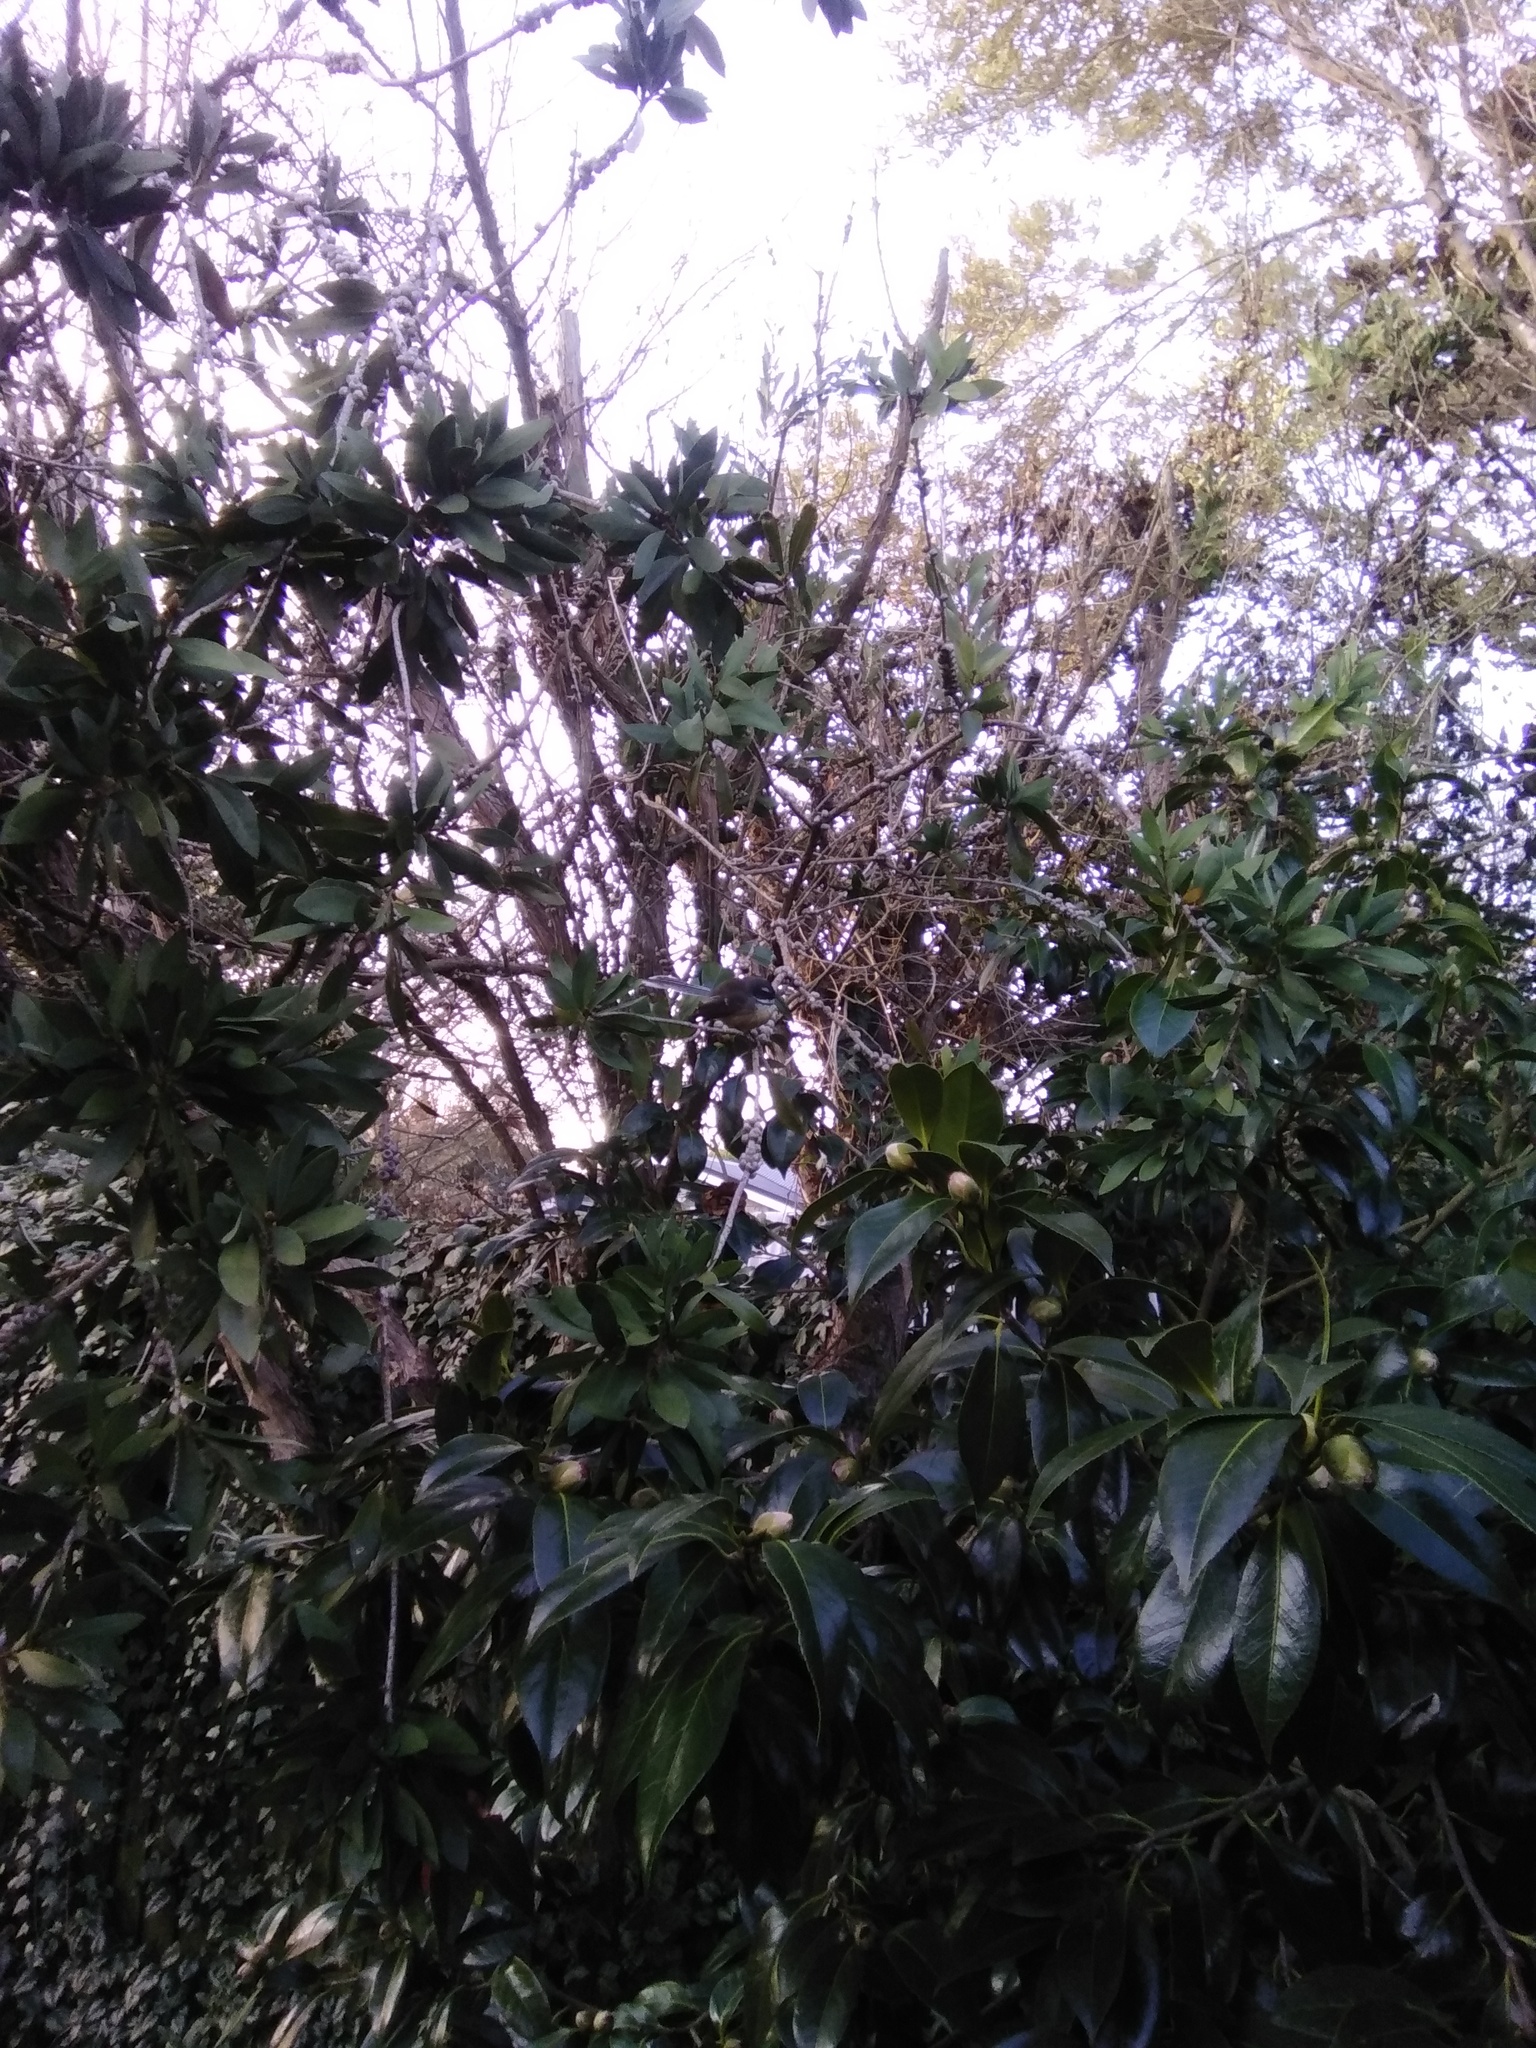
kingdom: Animalia
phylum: Chordata
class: Aves
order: Passeriformes
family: Rhipiduridae
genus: Rhipidura
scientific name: Rhipidura fuliginosa
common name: New zealand fantail
